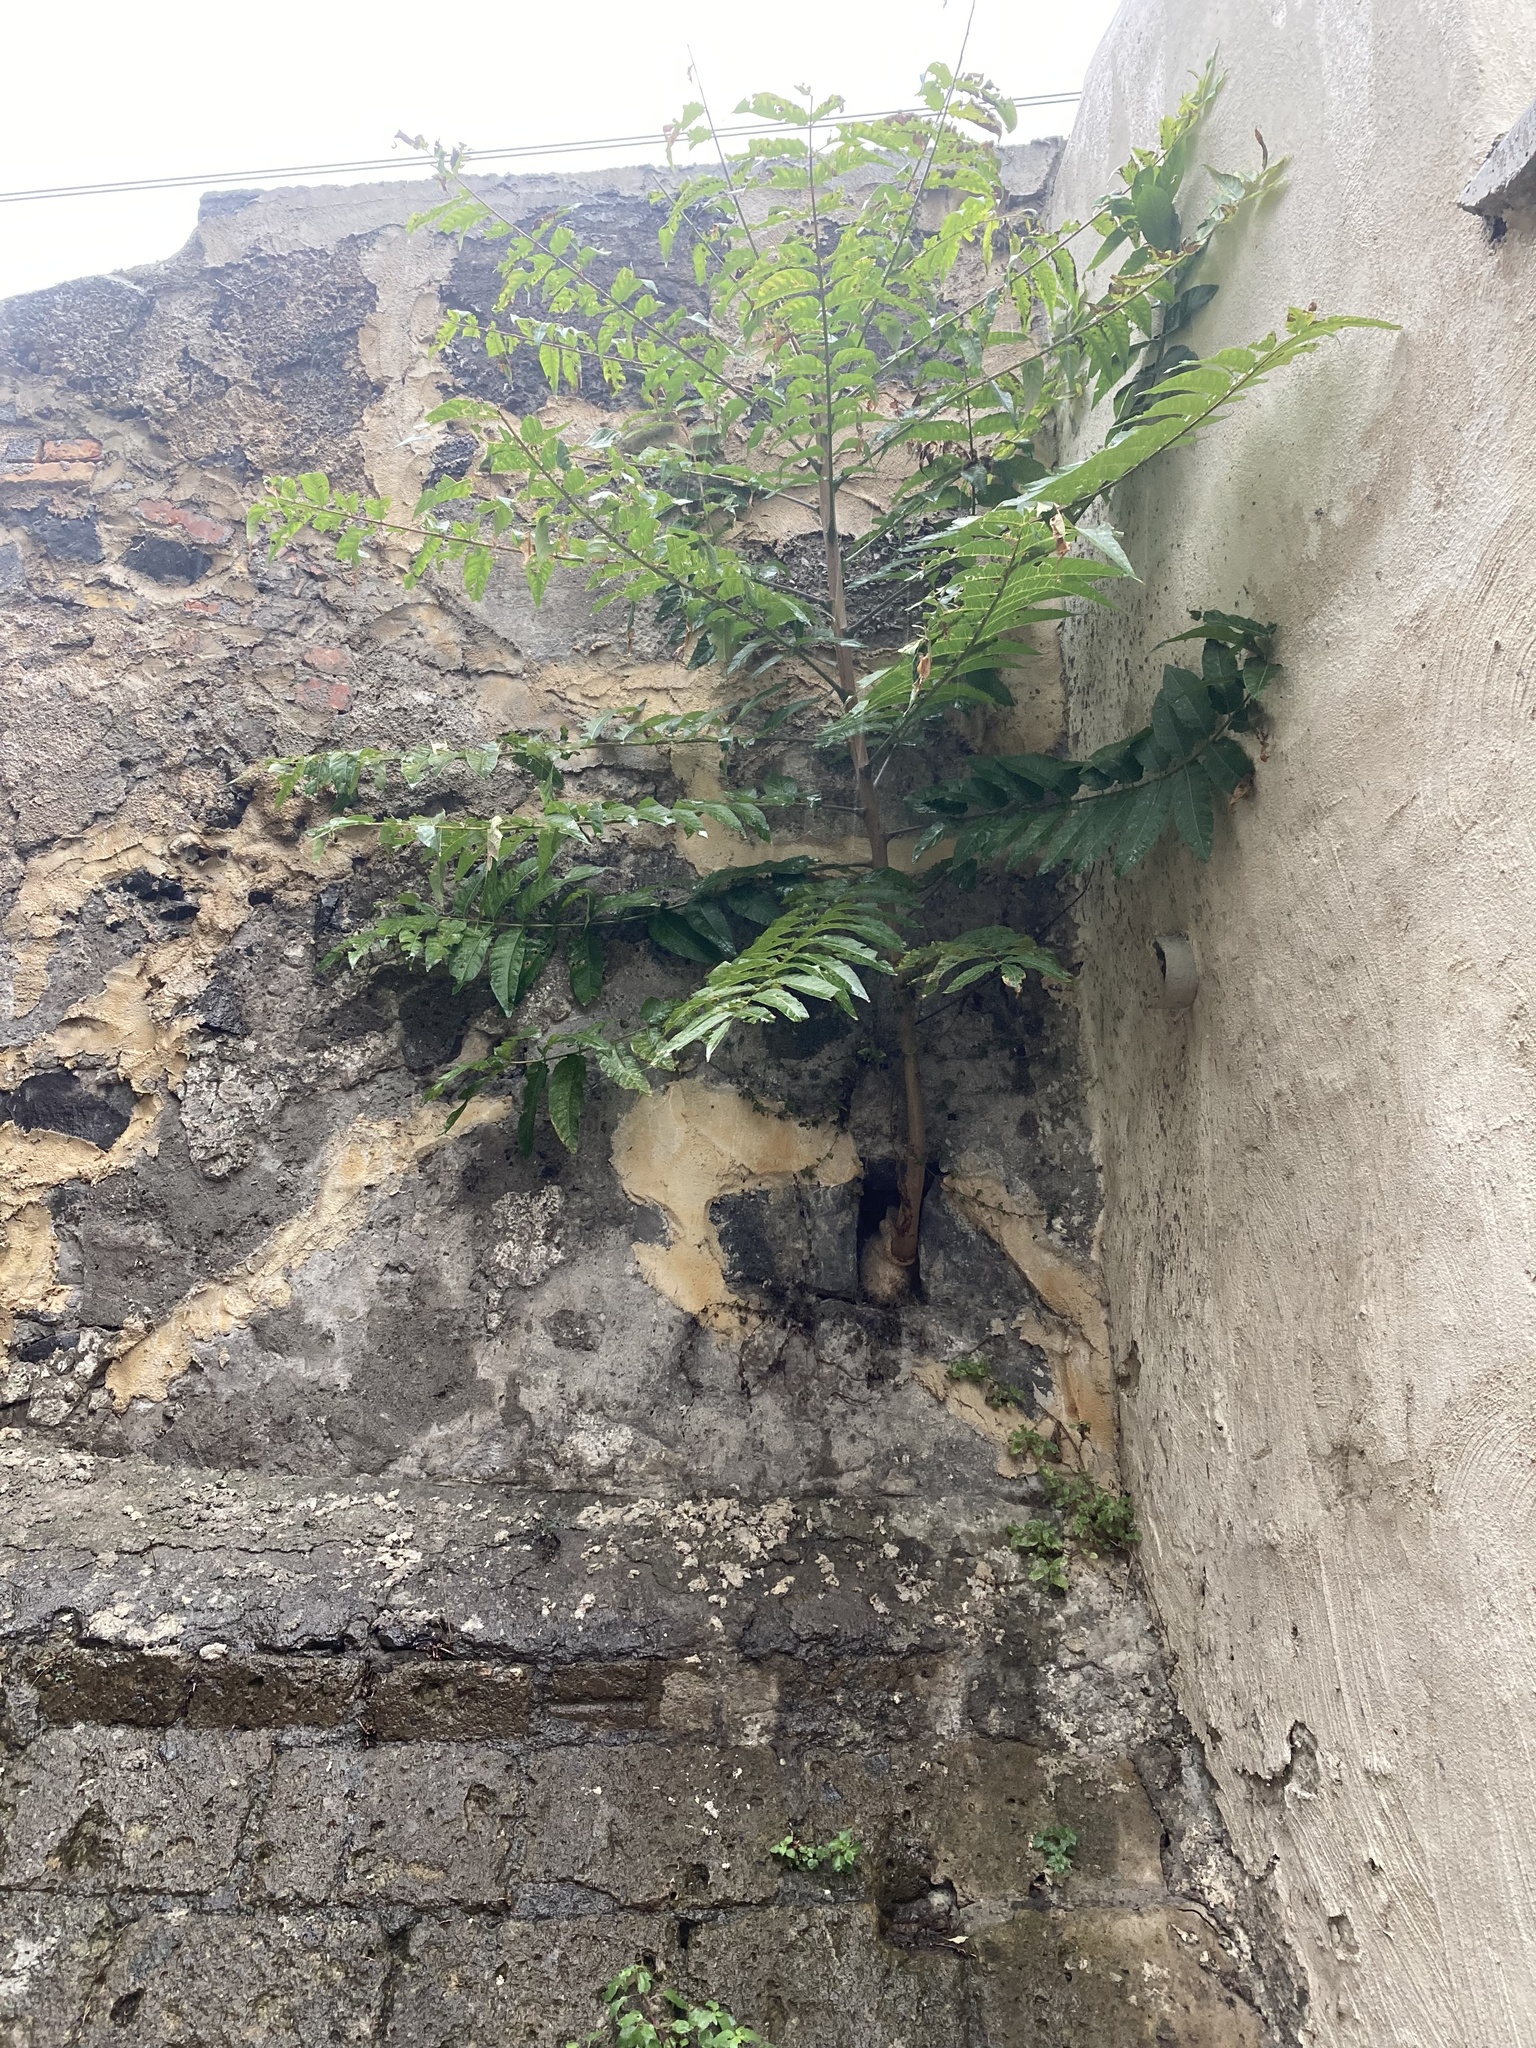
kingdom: Plantae
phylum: Tracheophyta
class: Magnoliopsida
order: Sapindales
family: Simaroubaceae
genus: Ailanthus
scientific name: Ailanthus altissima
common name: Tree-of-heaven
